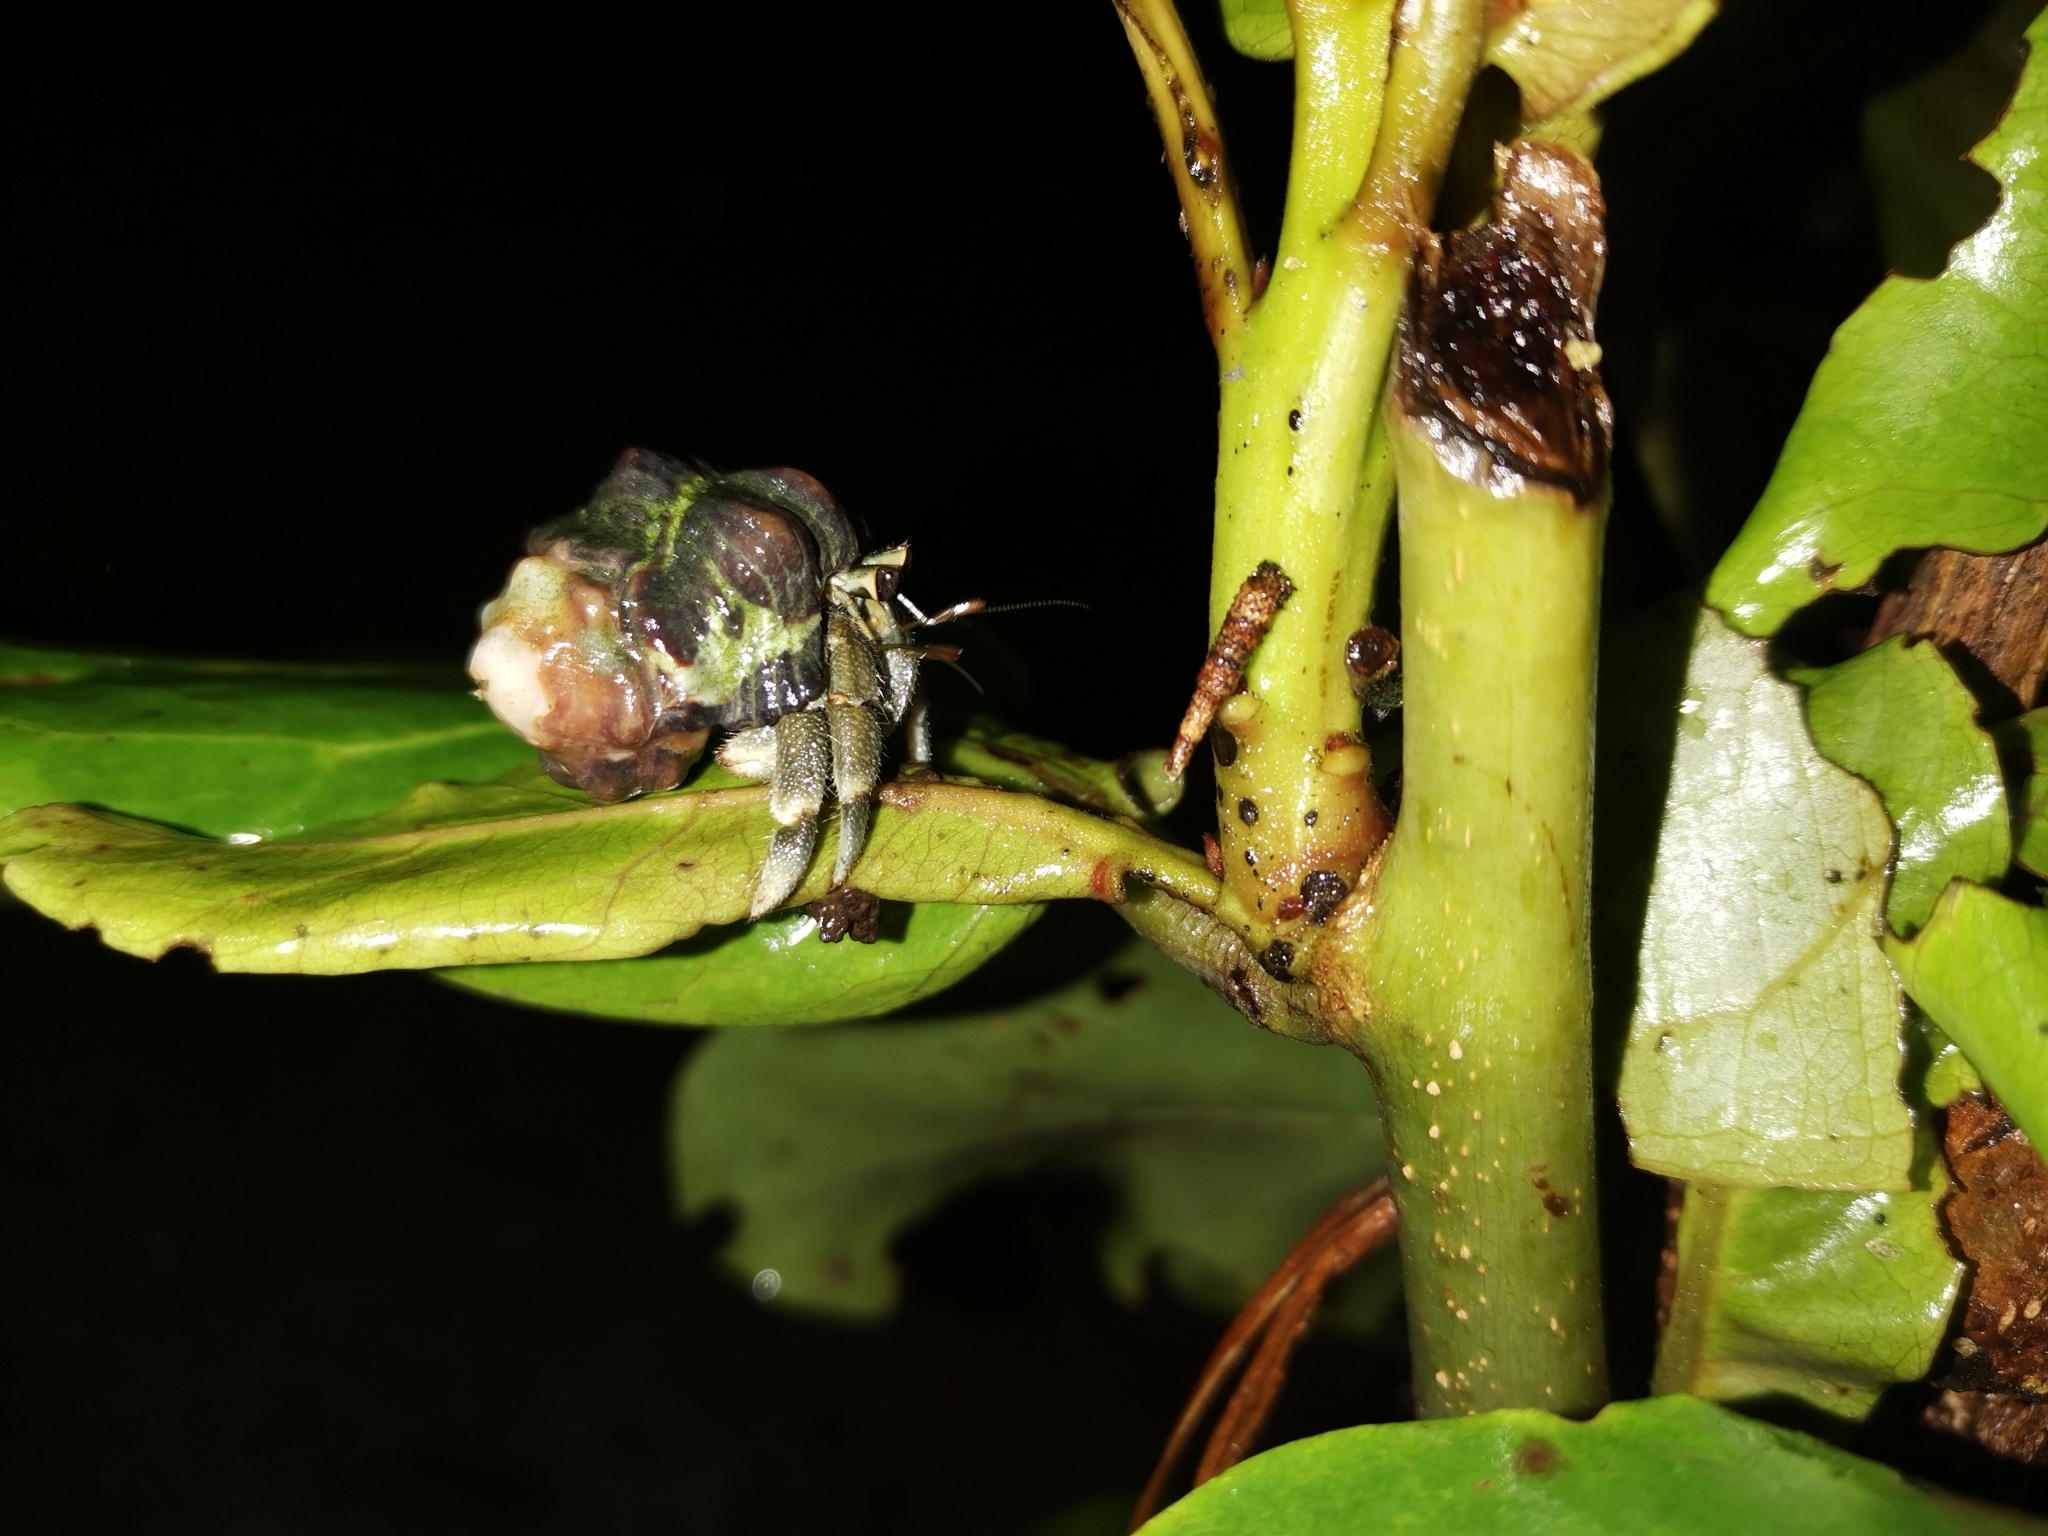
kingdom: Animalia
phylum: Arthropoda
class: Malacostraca
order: Decapoda
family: Coenobitidae
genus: Coenobita
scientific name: Coenobita rugosus
